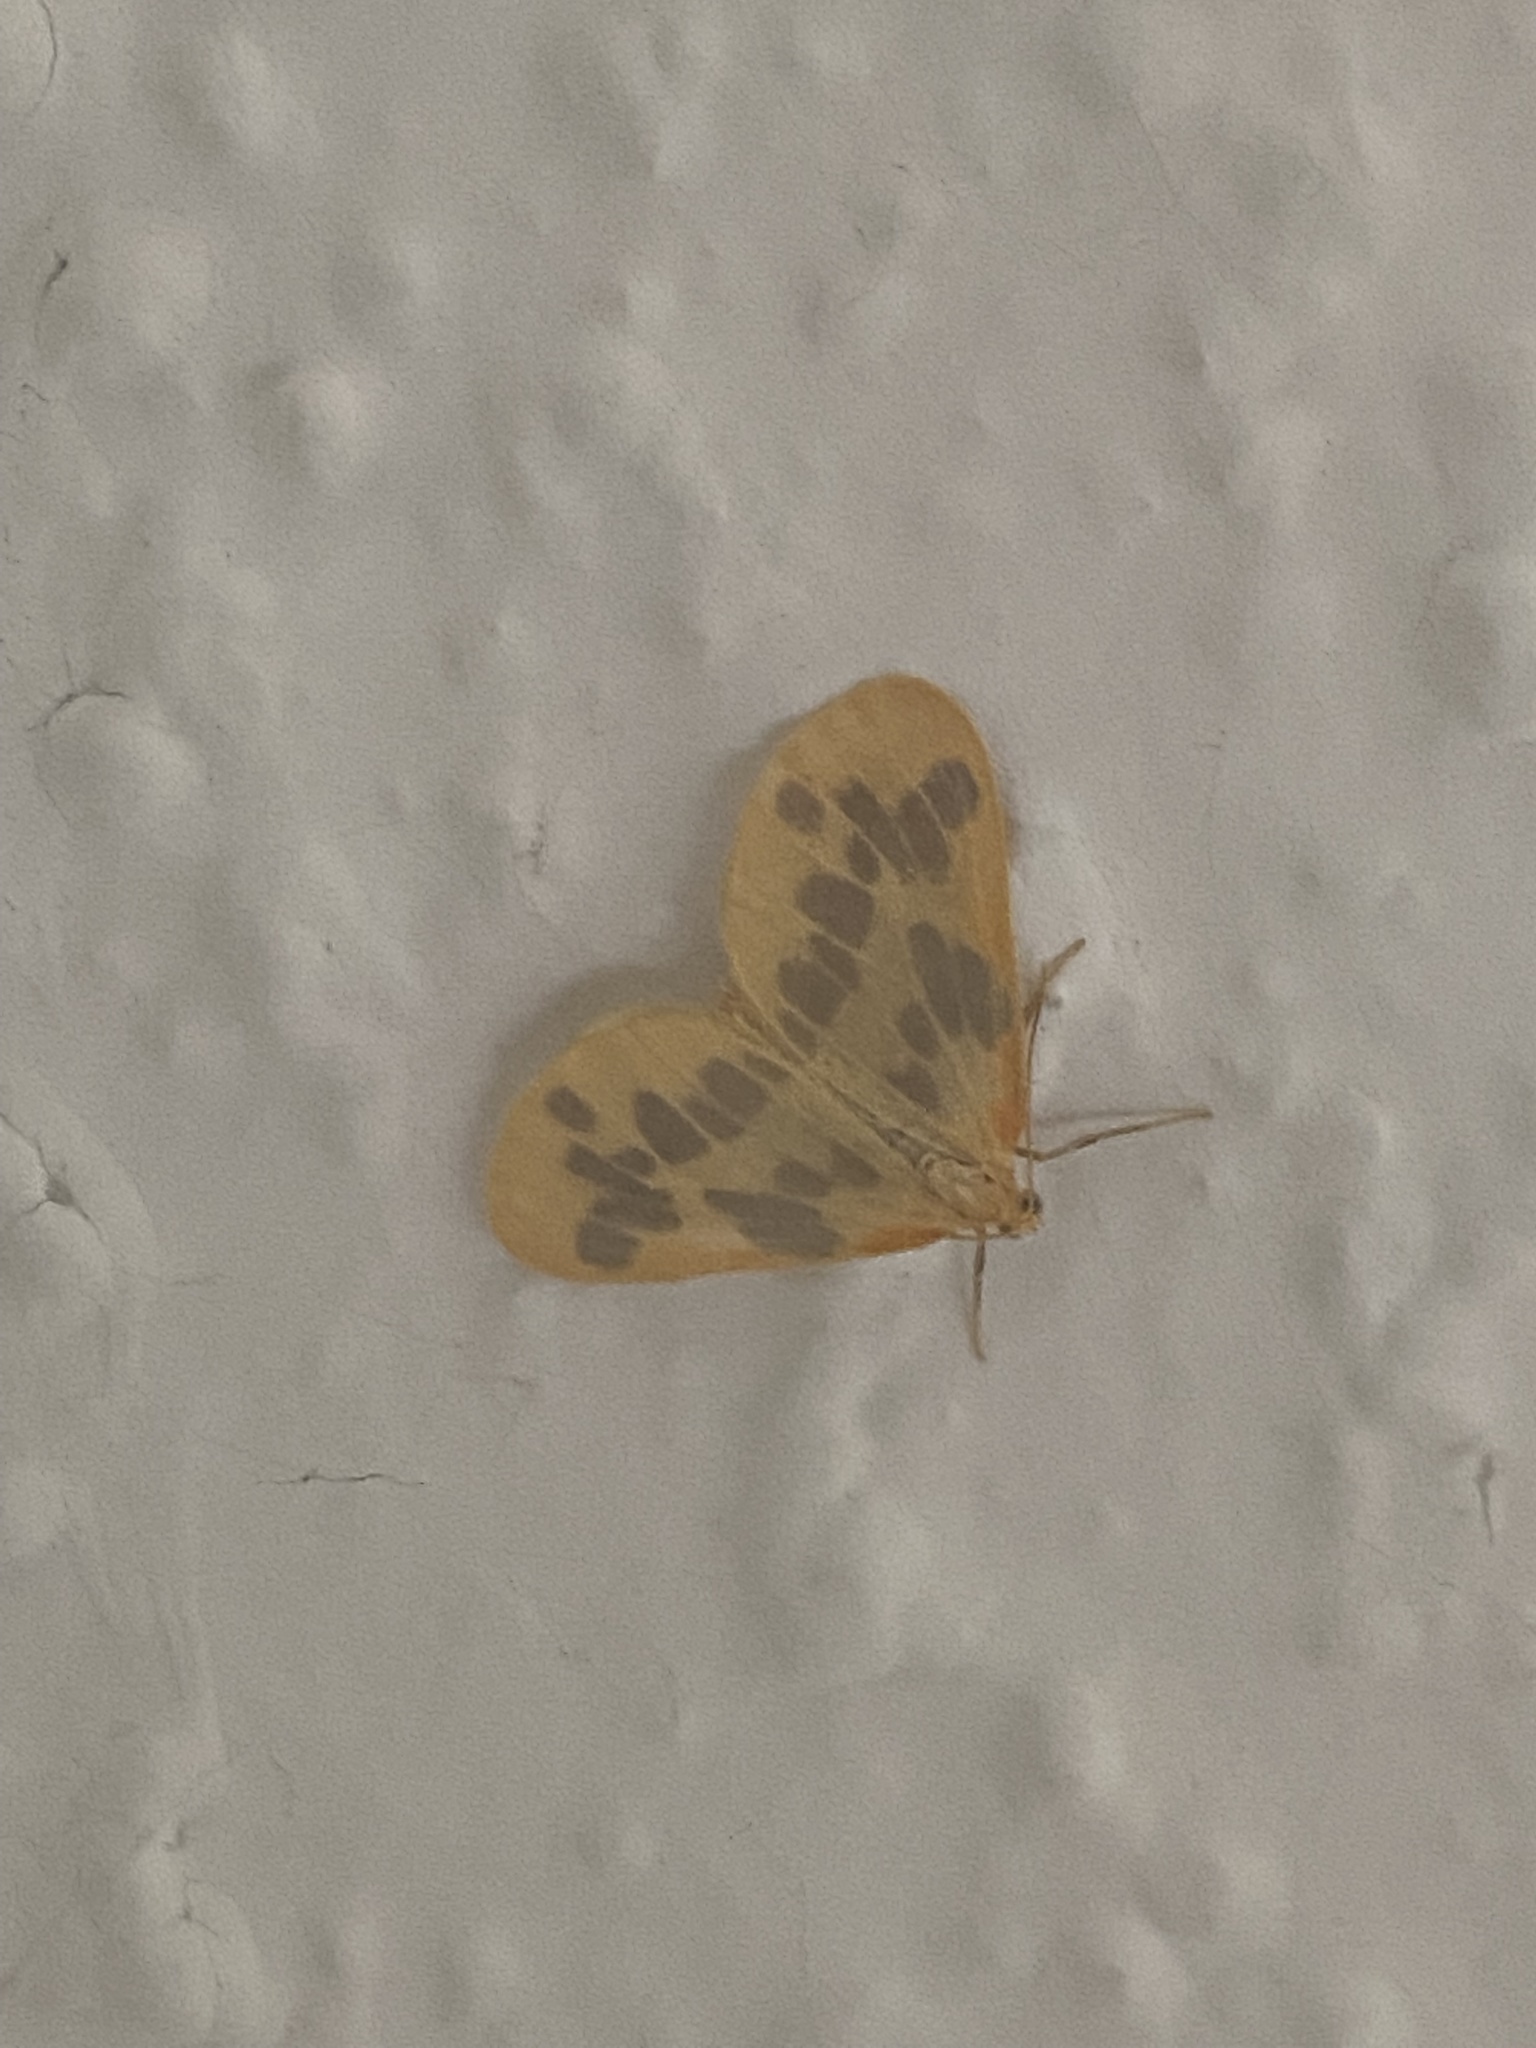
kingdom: Animalia
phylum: Arthropoda
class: Insecta
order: Lepidoptera
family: Geometridae
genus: Eubaphe
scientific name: Eubaphe mendica
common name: Beggar
